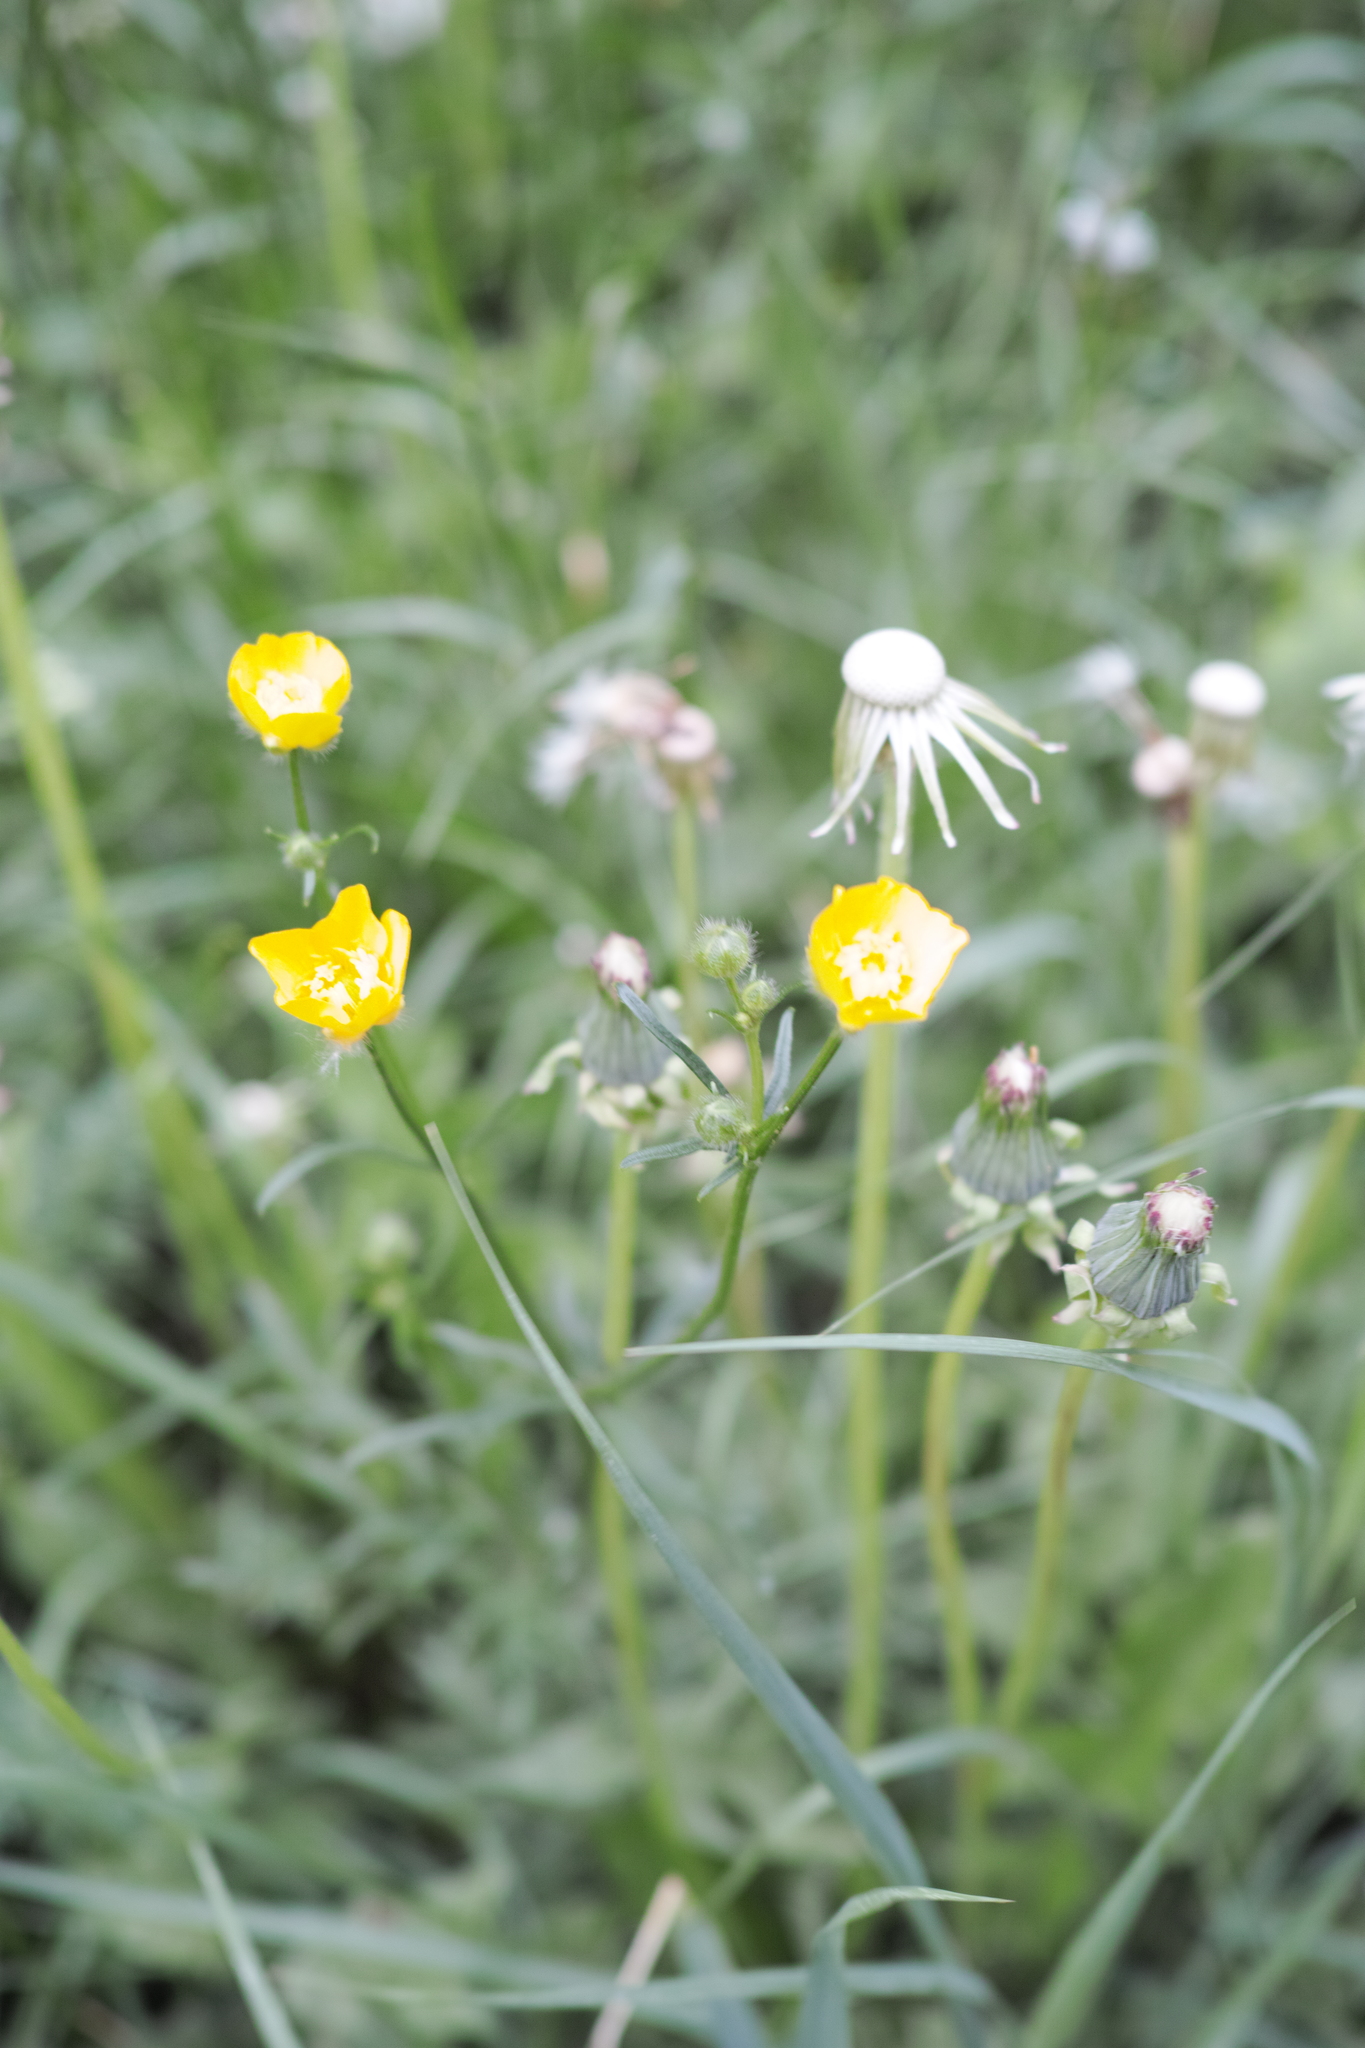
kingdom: Plantae
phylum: Tracheophyta
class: Magnoliopsida
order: Ranunculales
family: Ranunculaceae
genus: Ranunculus
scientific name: Ranunculus polyanthemos
